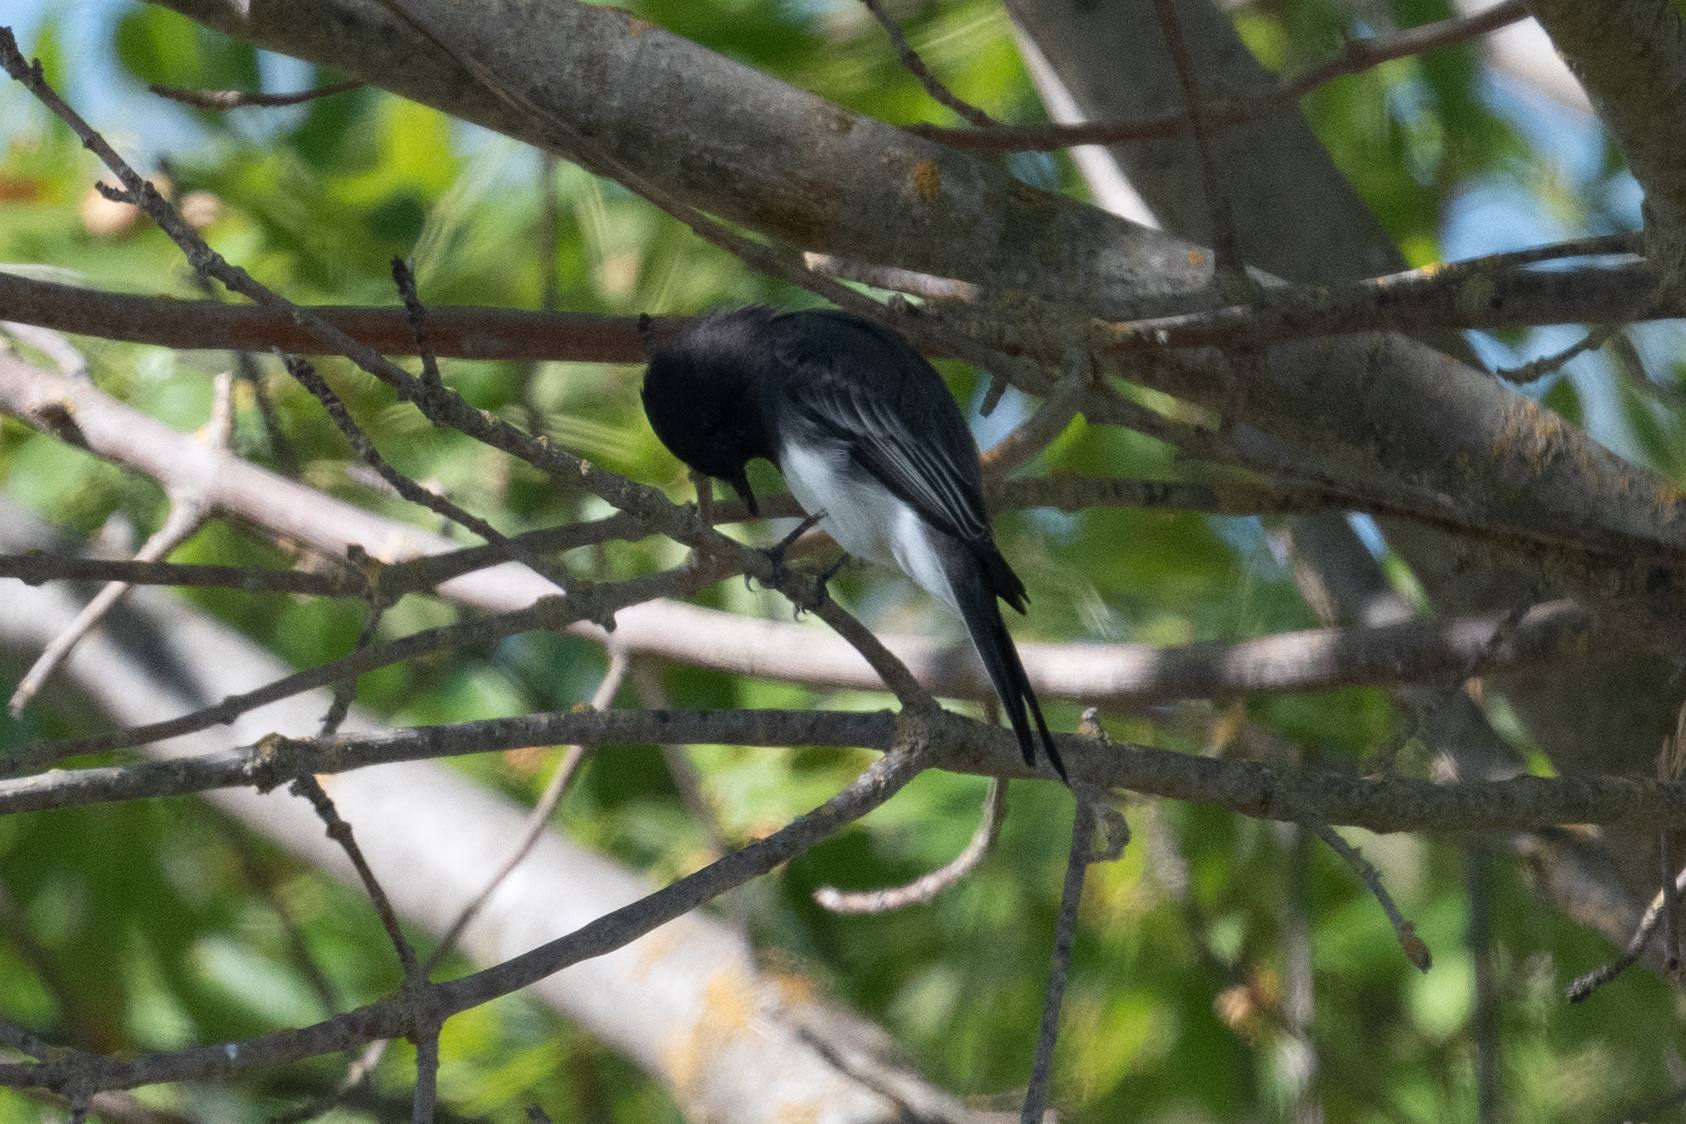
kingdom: Animalia
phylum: Chordata
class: Aves
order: Passeriformes
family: Tyrannidae
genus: Sayornis
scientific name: Sayornis nigricans
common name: Black phoebe
